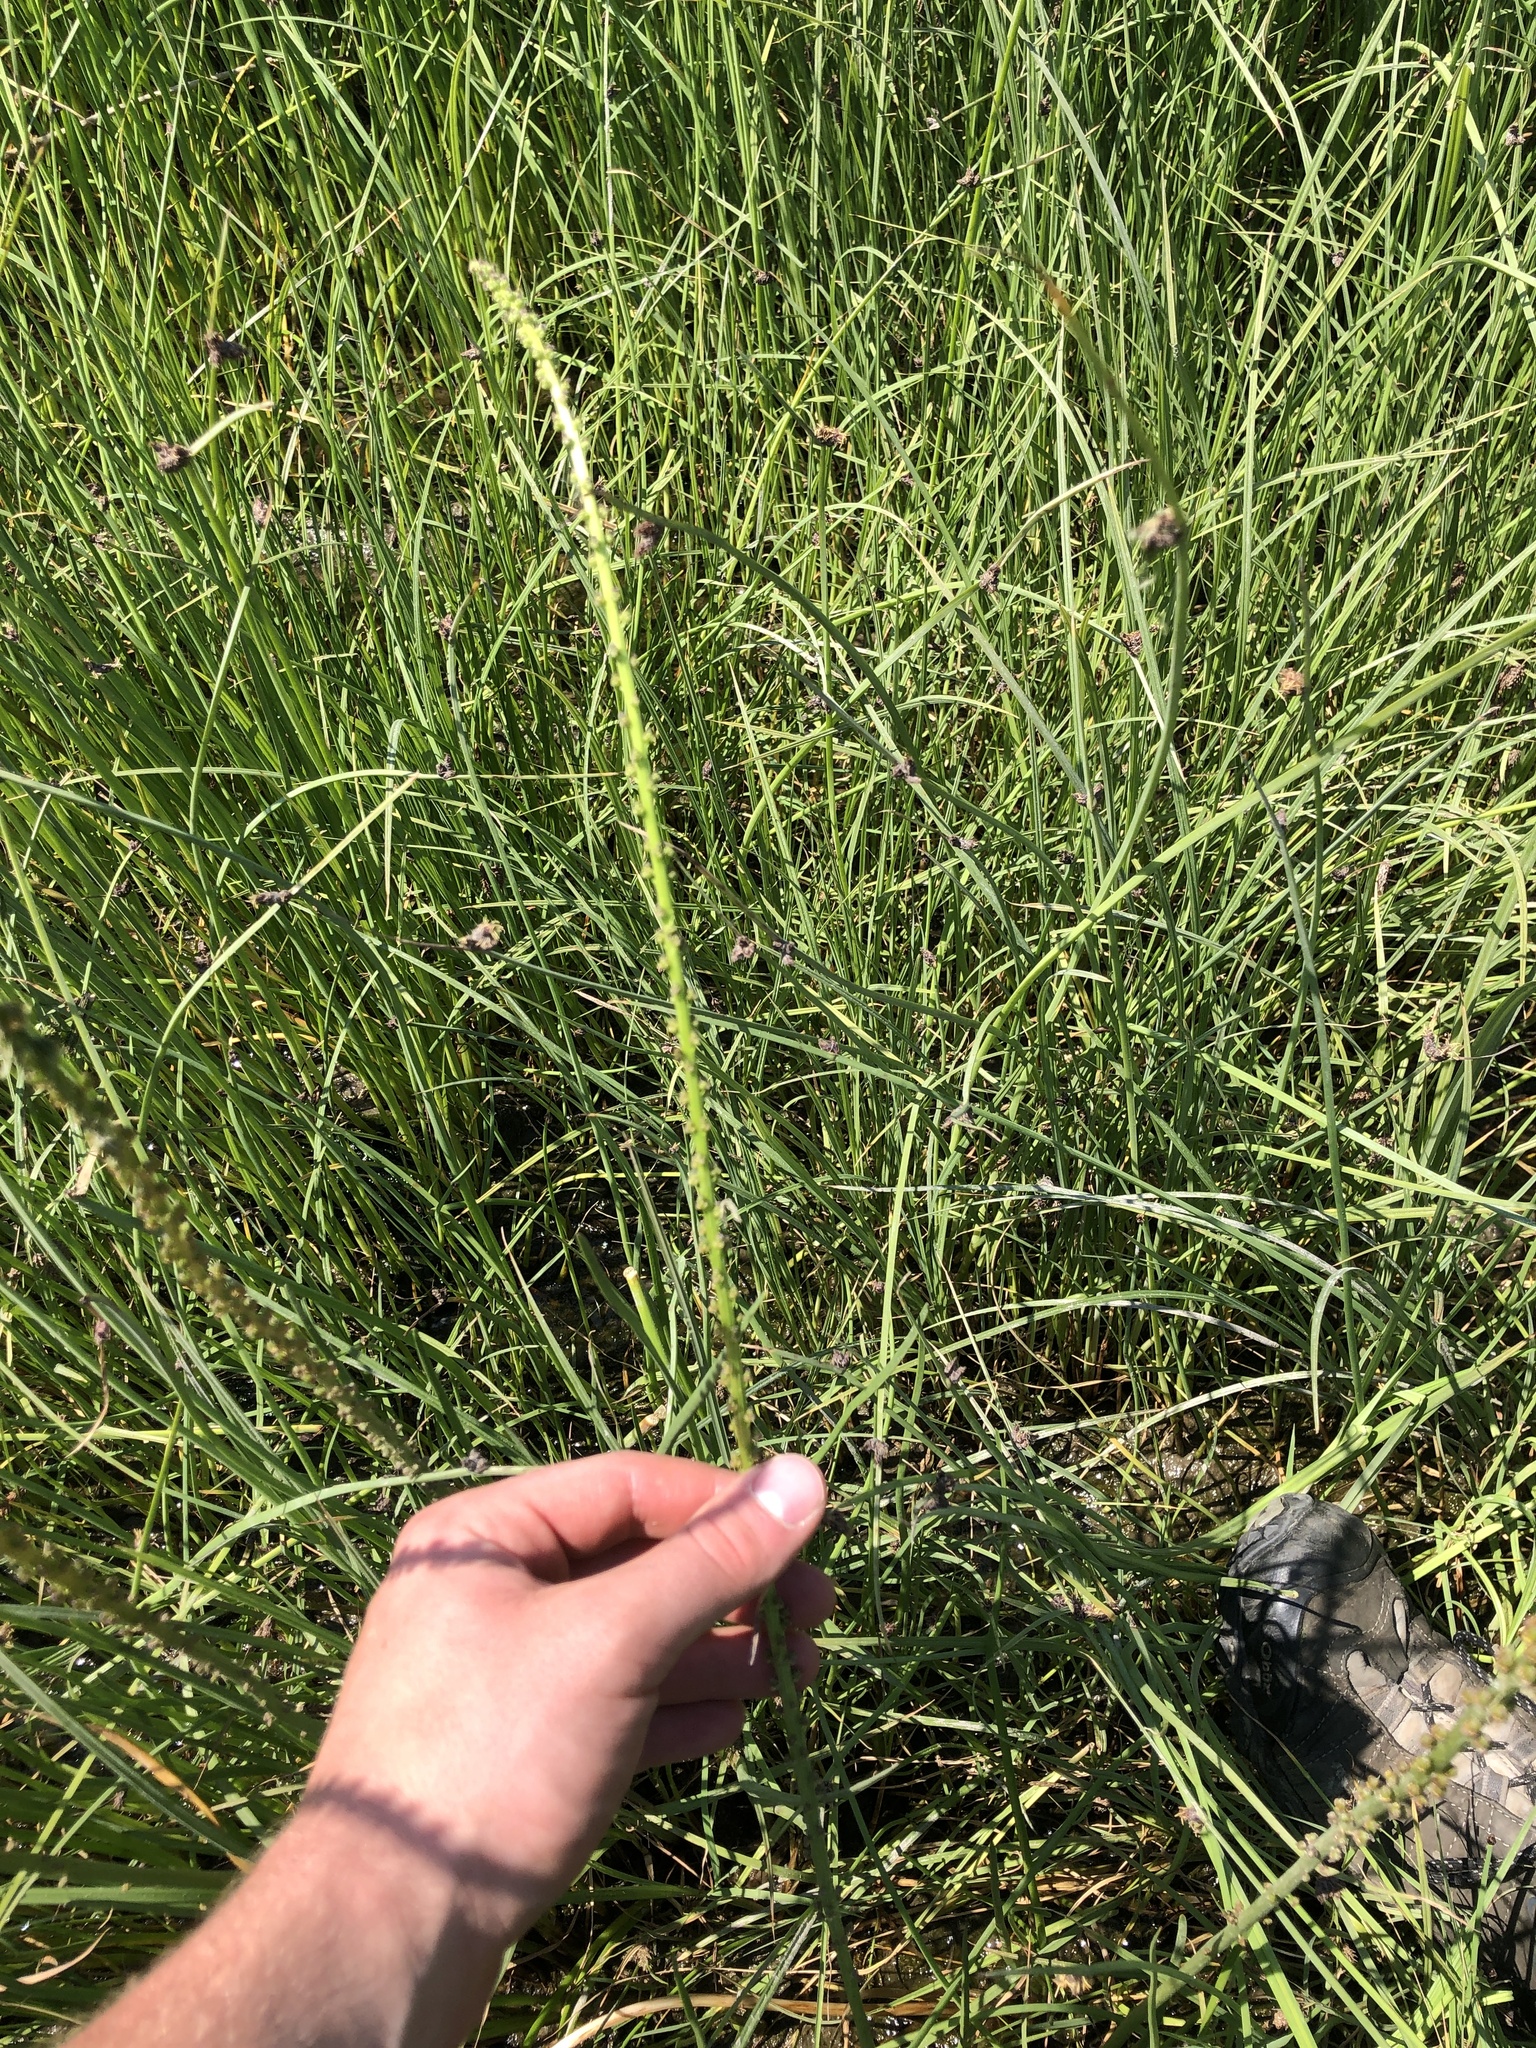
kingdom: Plantae
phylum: Tracheophyta
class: Liliopsida
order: Alismatales
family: Juncaginaceae
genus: Triglochin
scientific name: Triglochin maritima
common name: Sea arrowgrass
